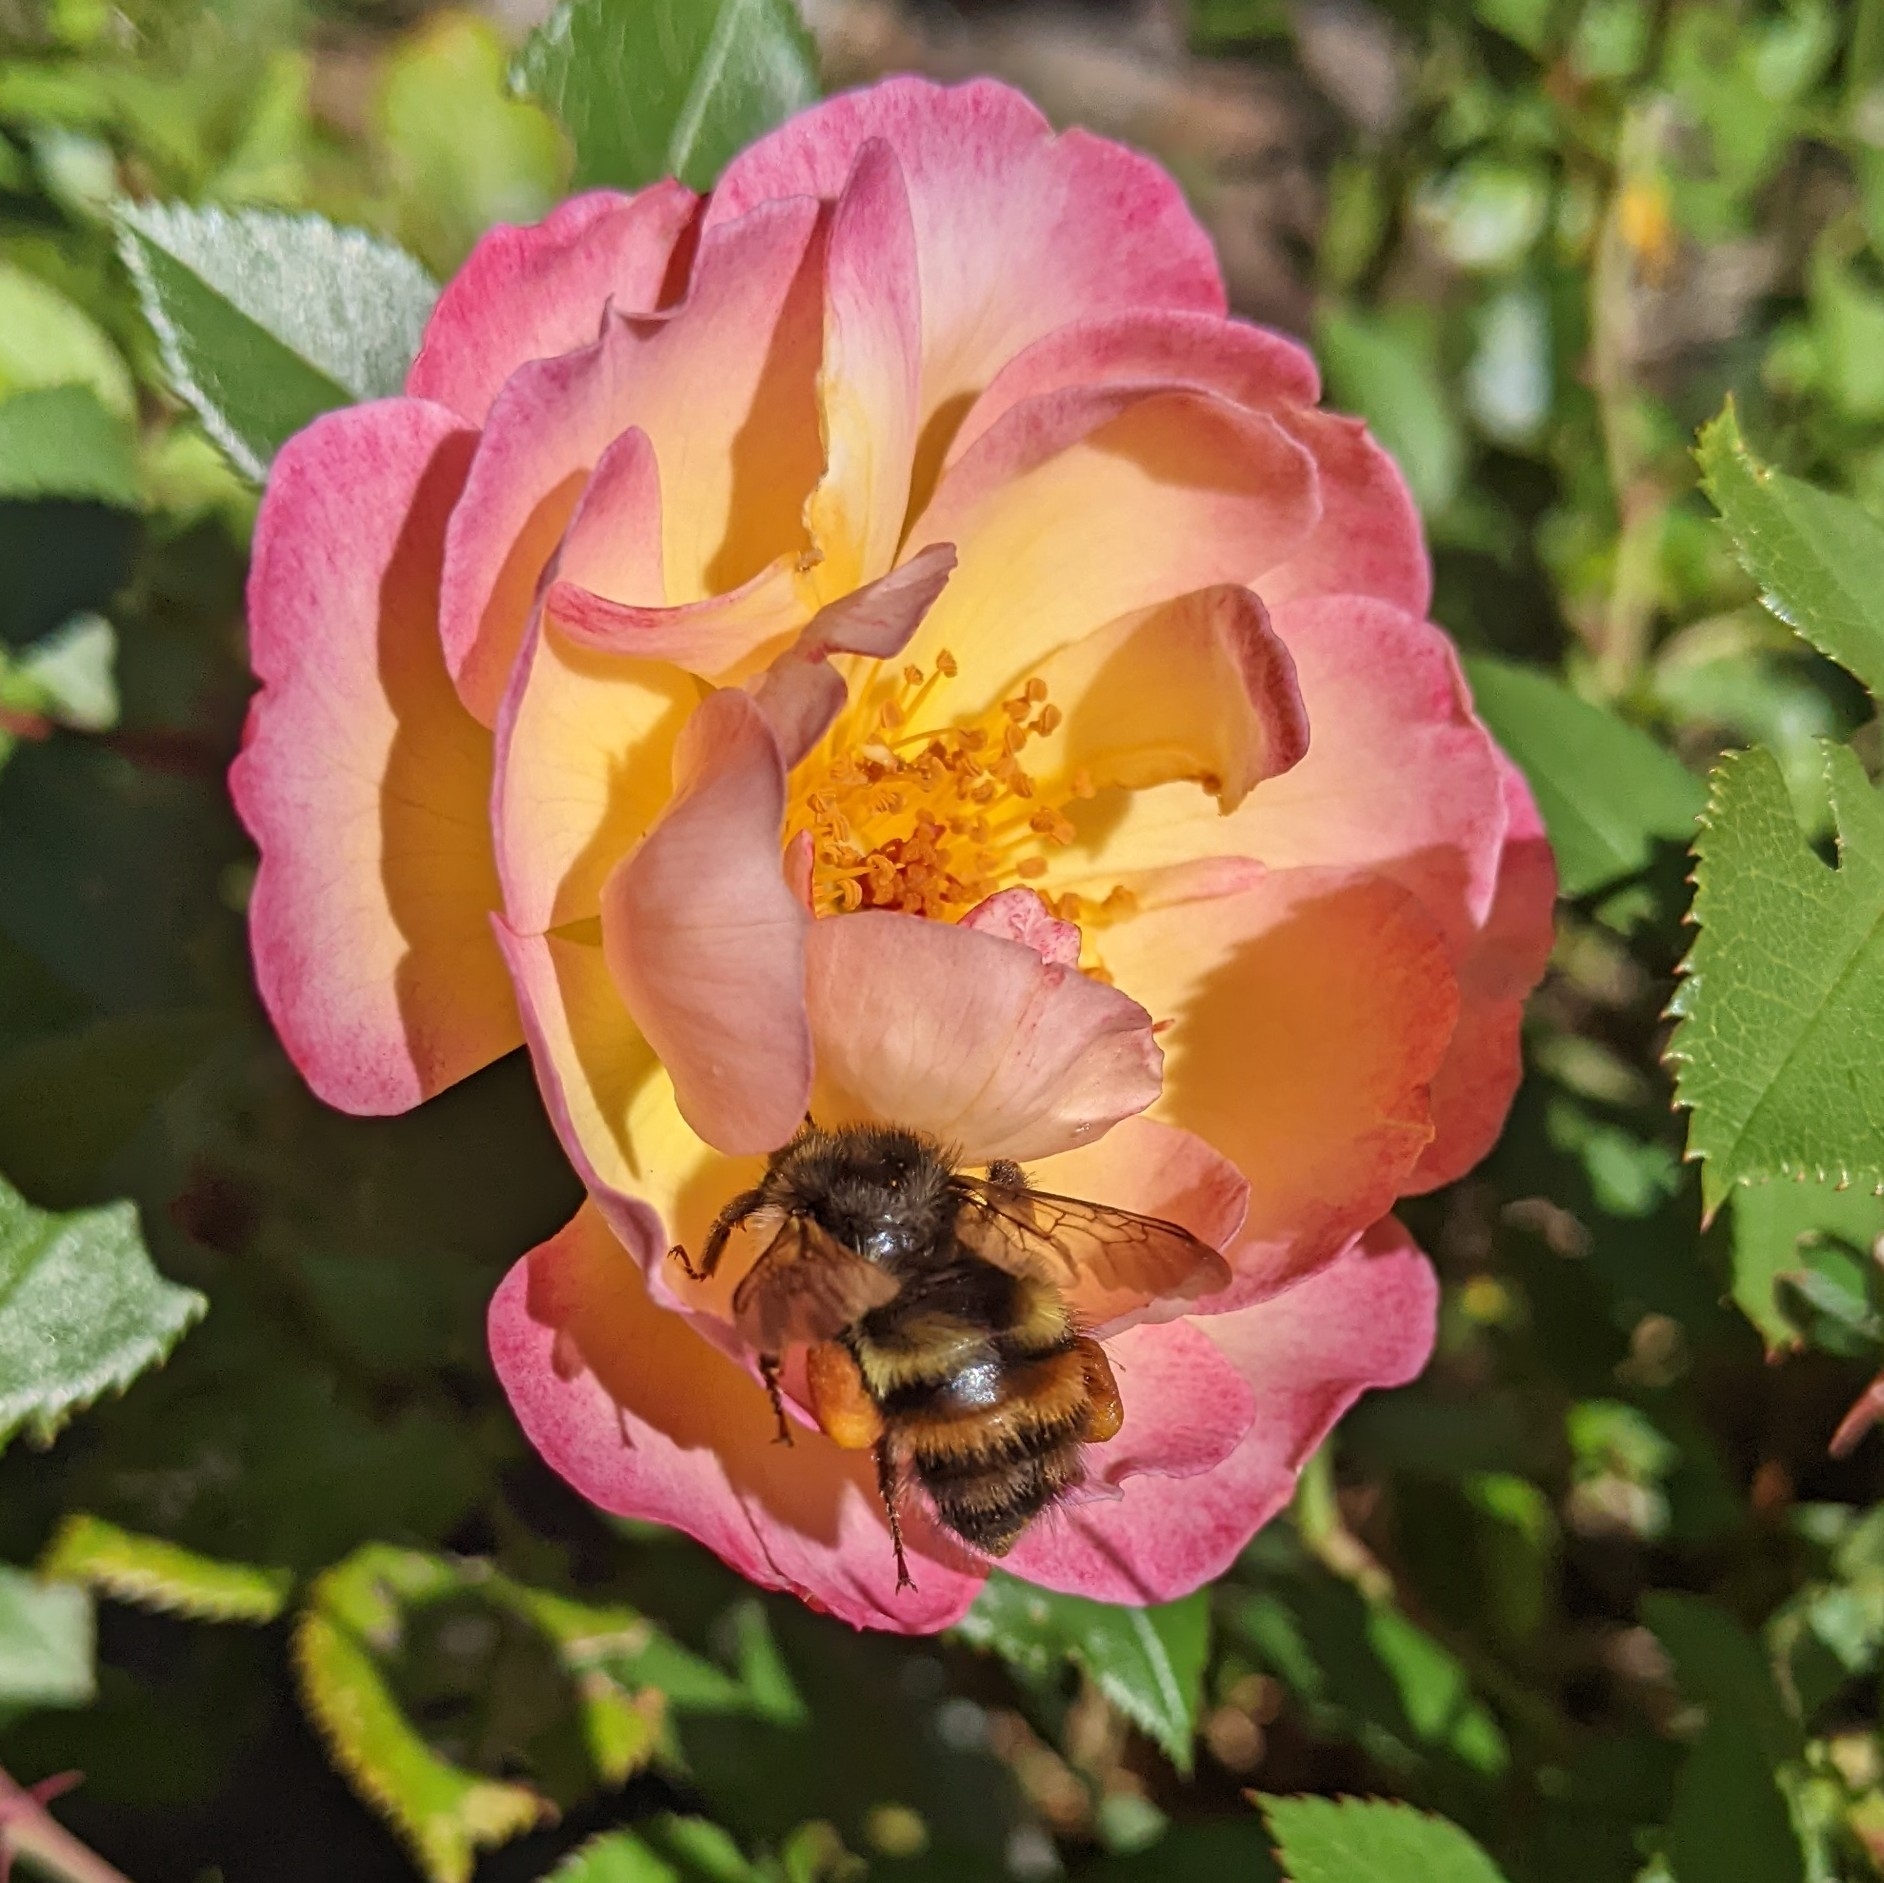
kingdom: Animalia
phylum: Arthropoda
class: Insecta
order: Hymenoptera
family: Apidae
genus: Bombus
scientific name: Bombus flavifrons
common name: Yellow head bumble bee
